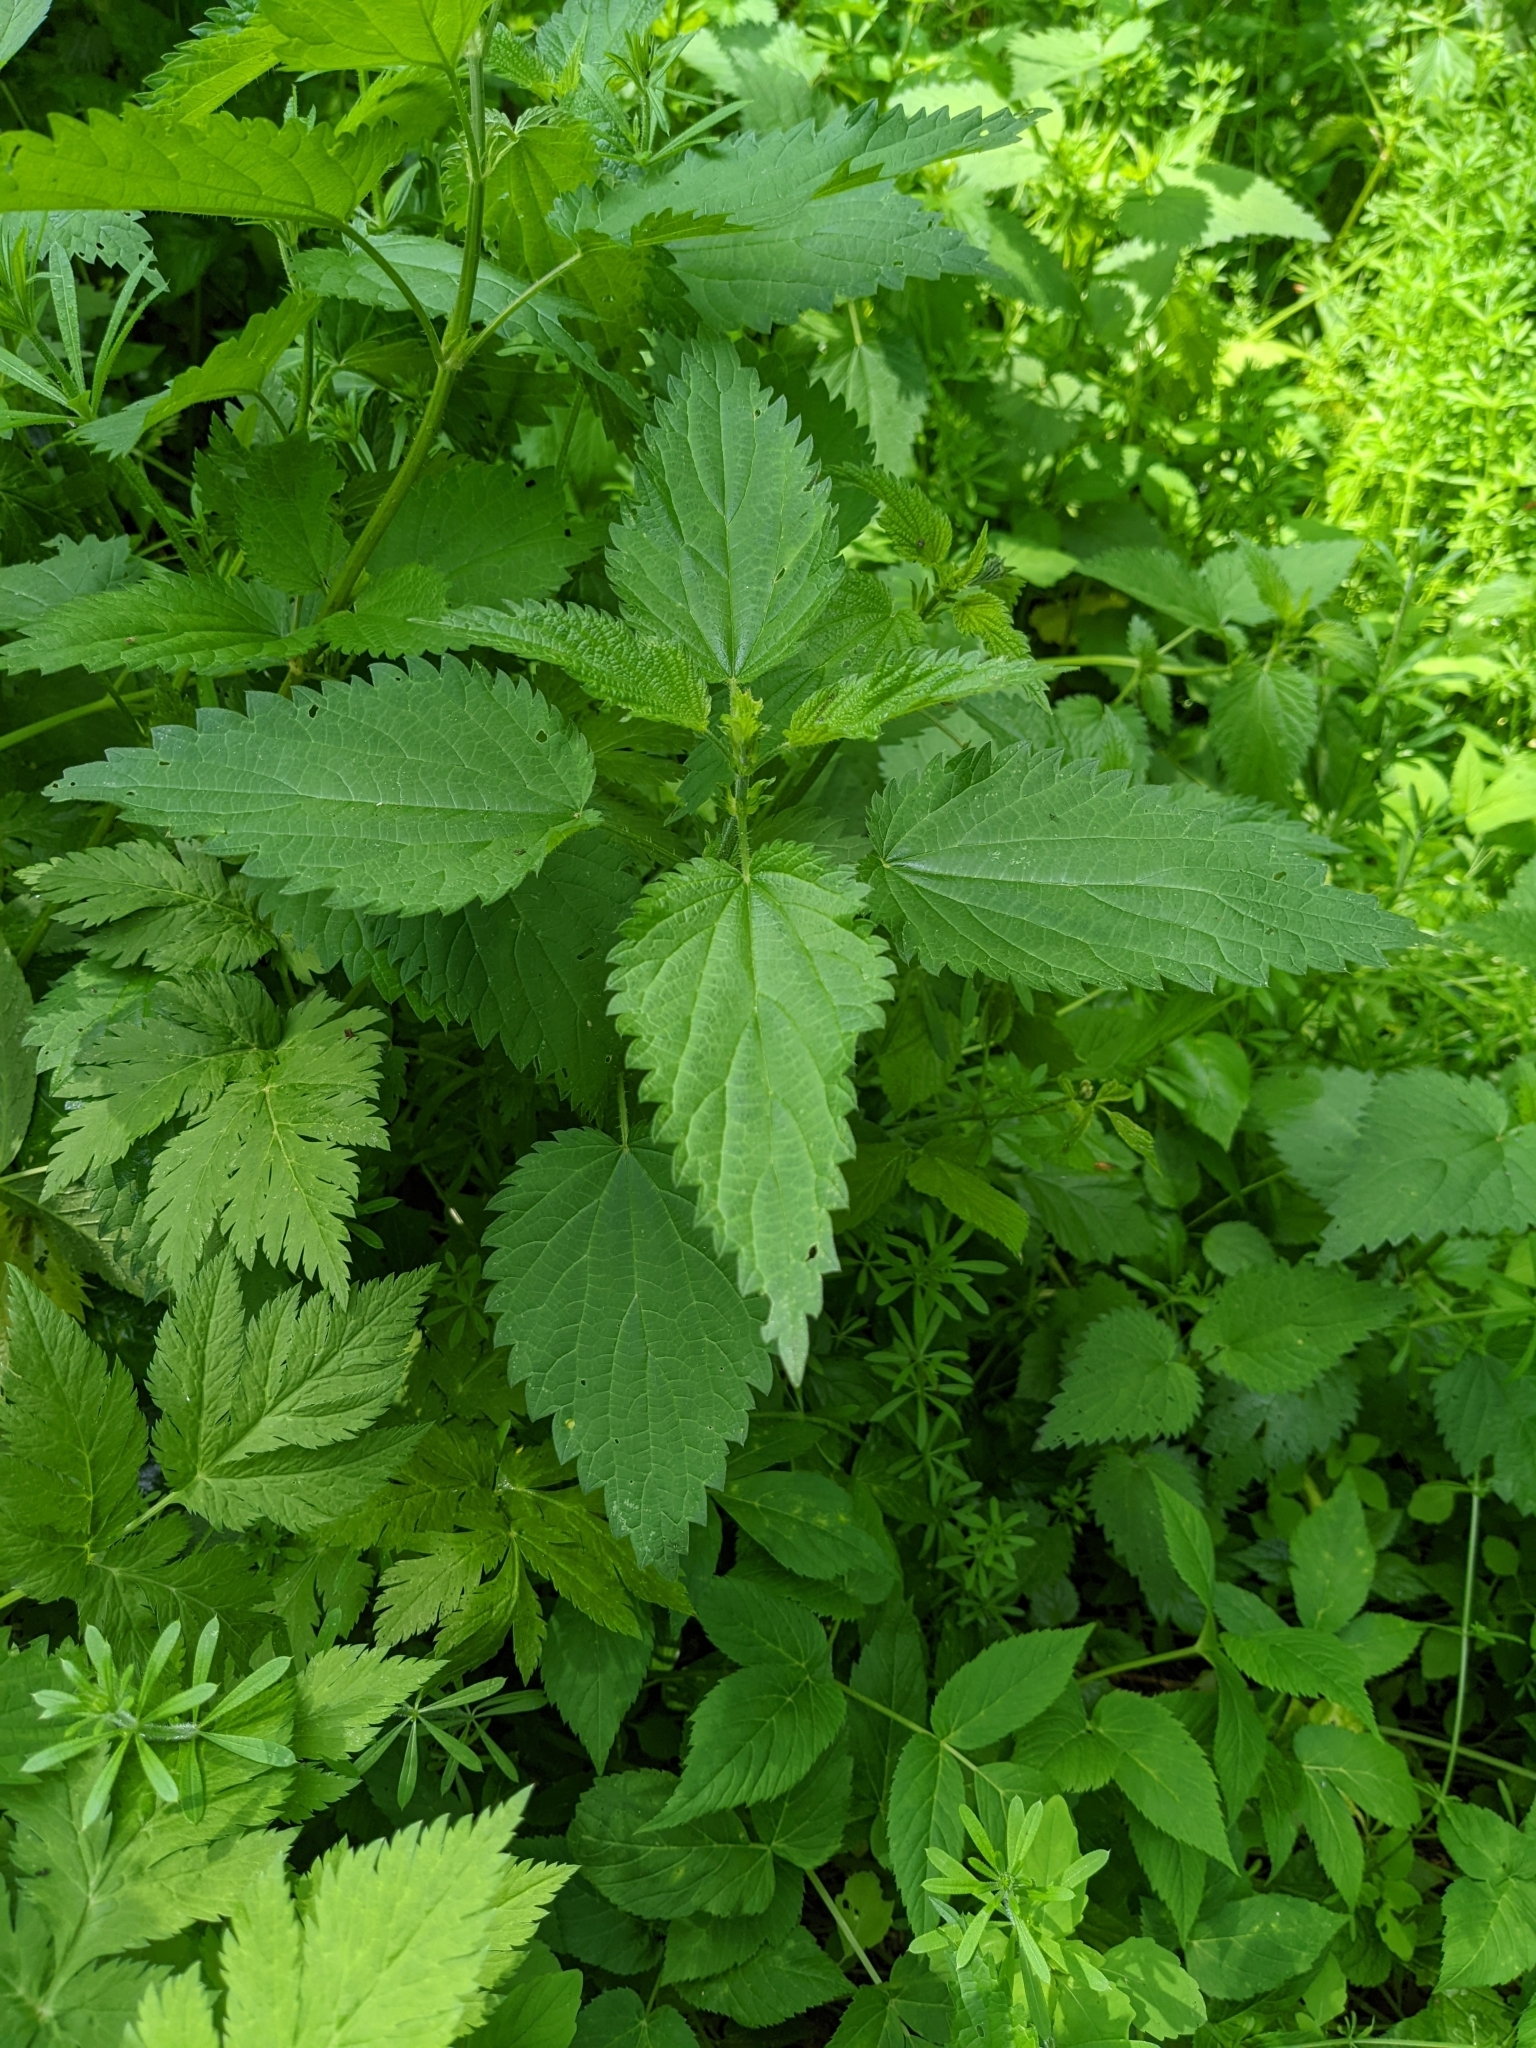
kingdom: Plantae
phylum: Tracheophyta
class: Magnoliopsida
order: Rosales
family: Urticaceae
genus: Urtica
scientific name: Urtica dioica
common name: Common nettle
